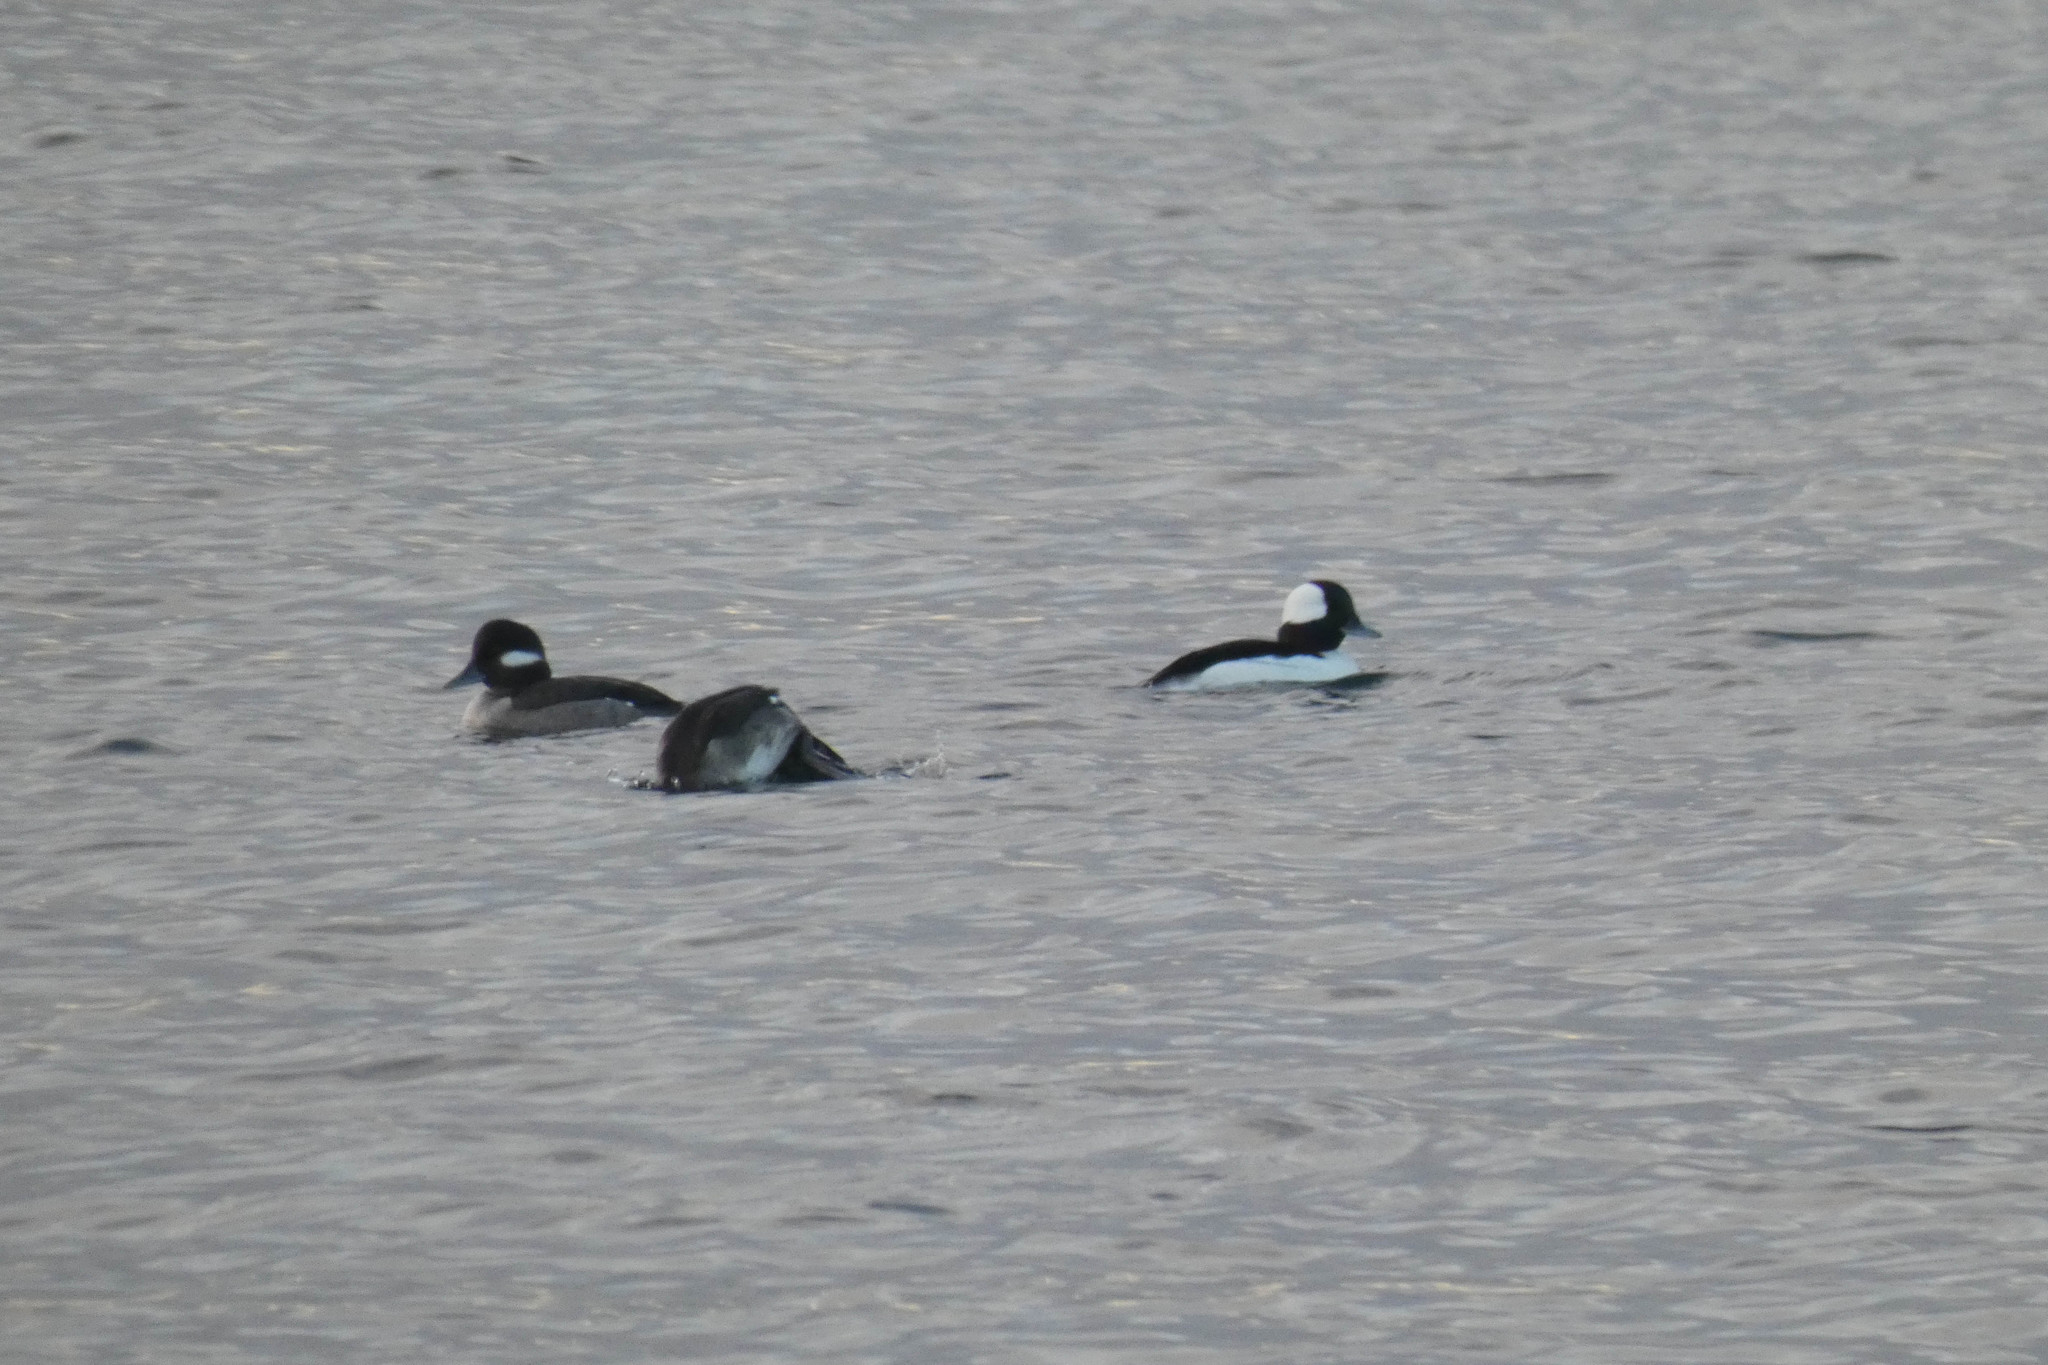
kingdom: Animalia
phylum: Chordata
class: Aves
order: Anseriformes
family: Anatidae
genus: Bucephala
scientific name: Bucephala albeola
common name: Bufflehead
